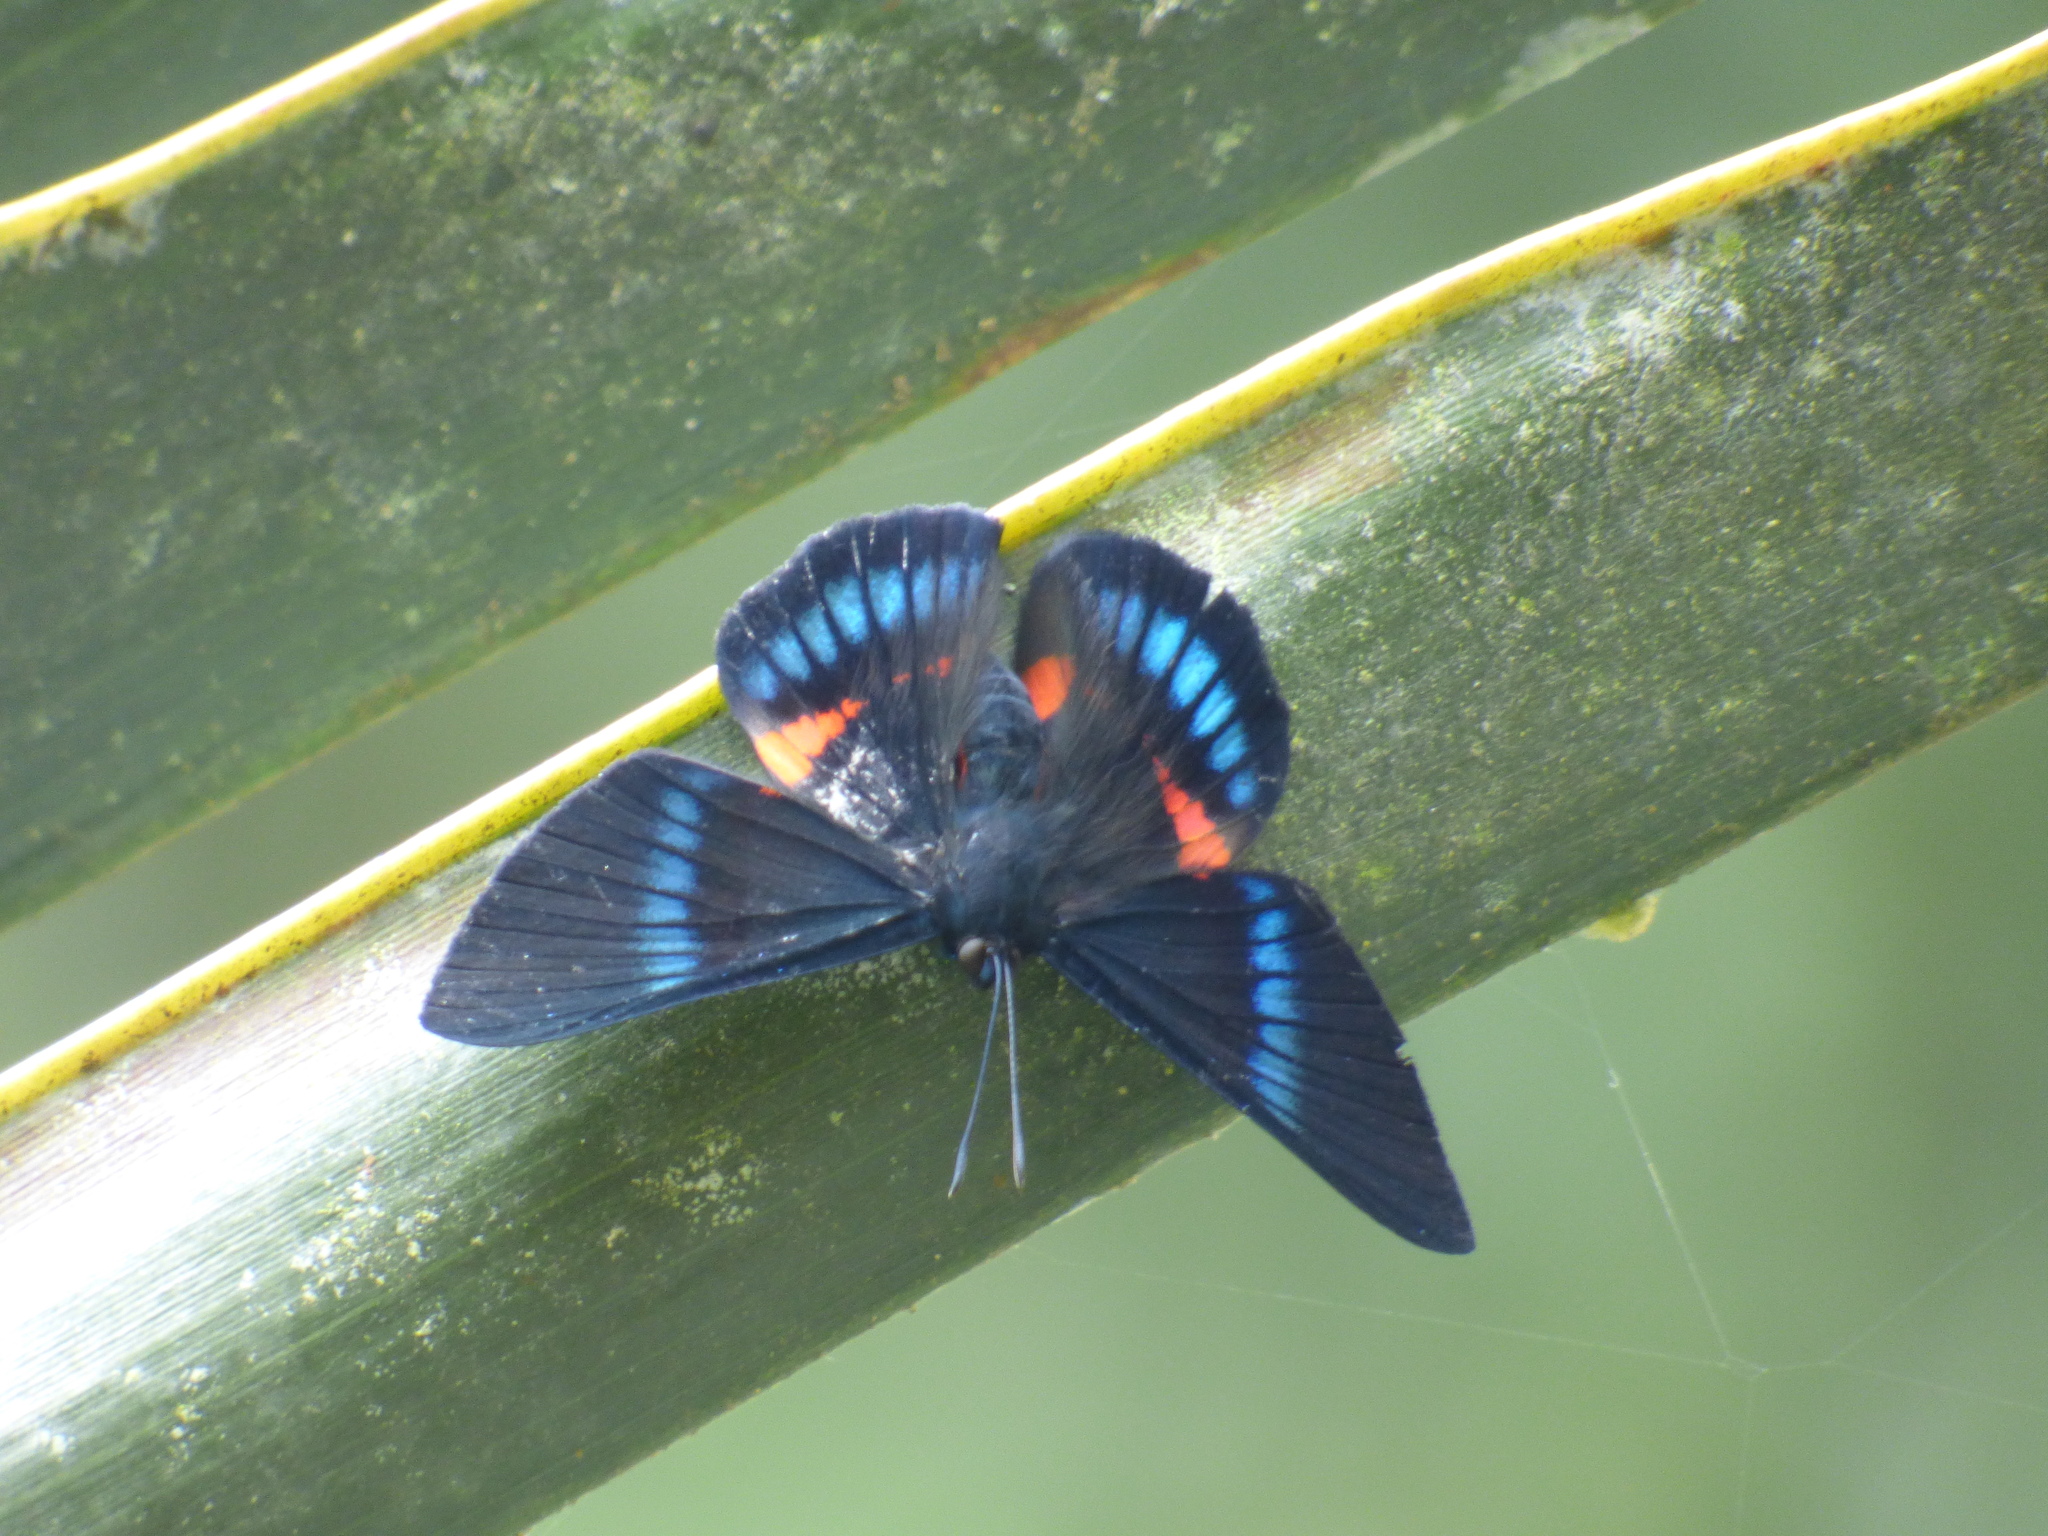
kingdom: Animalia
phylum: Arthropoda
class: Insecta
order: Lepidoptera
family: Lycaenidae
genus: Necyria
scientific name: Necyria bellona
